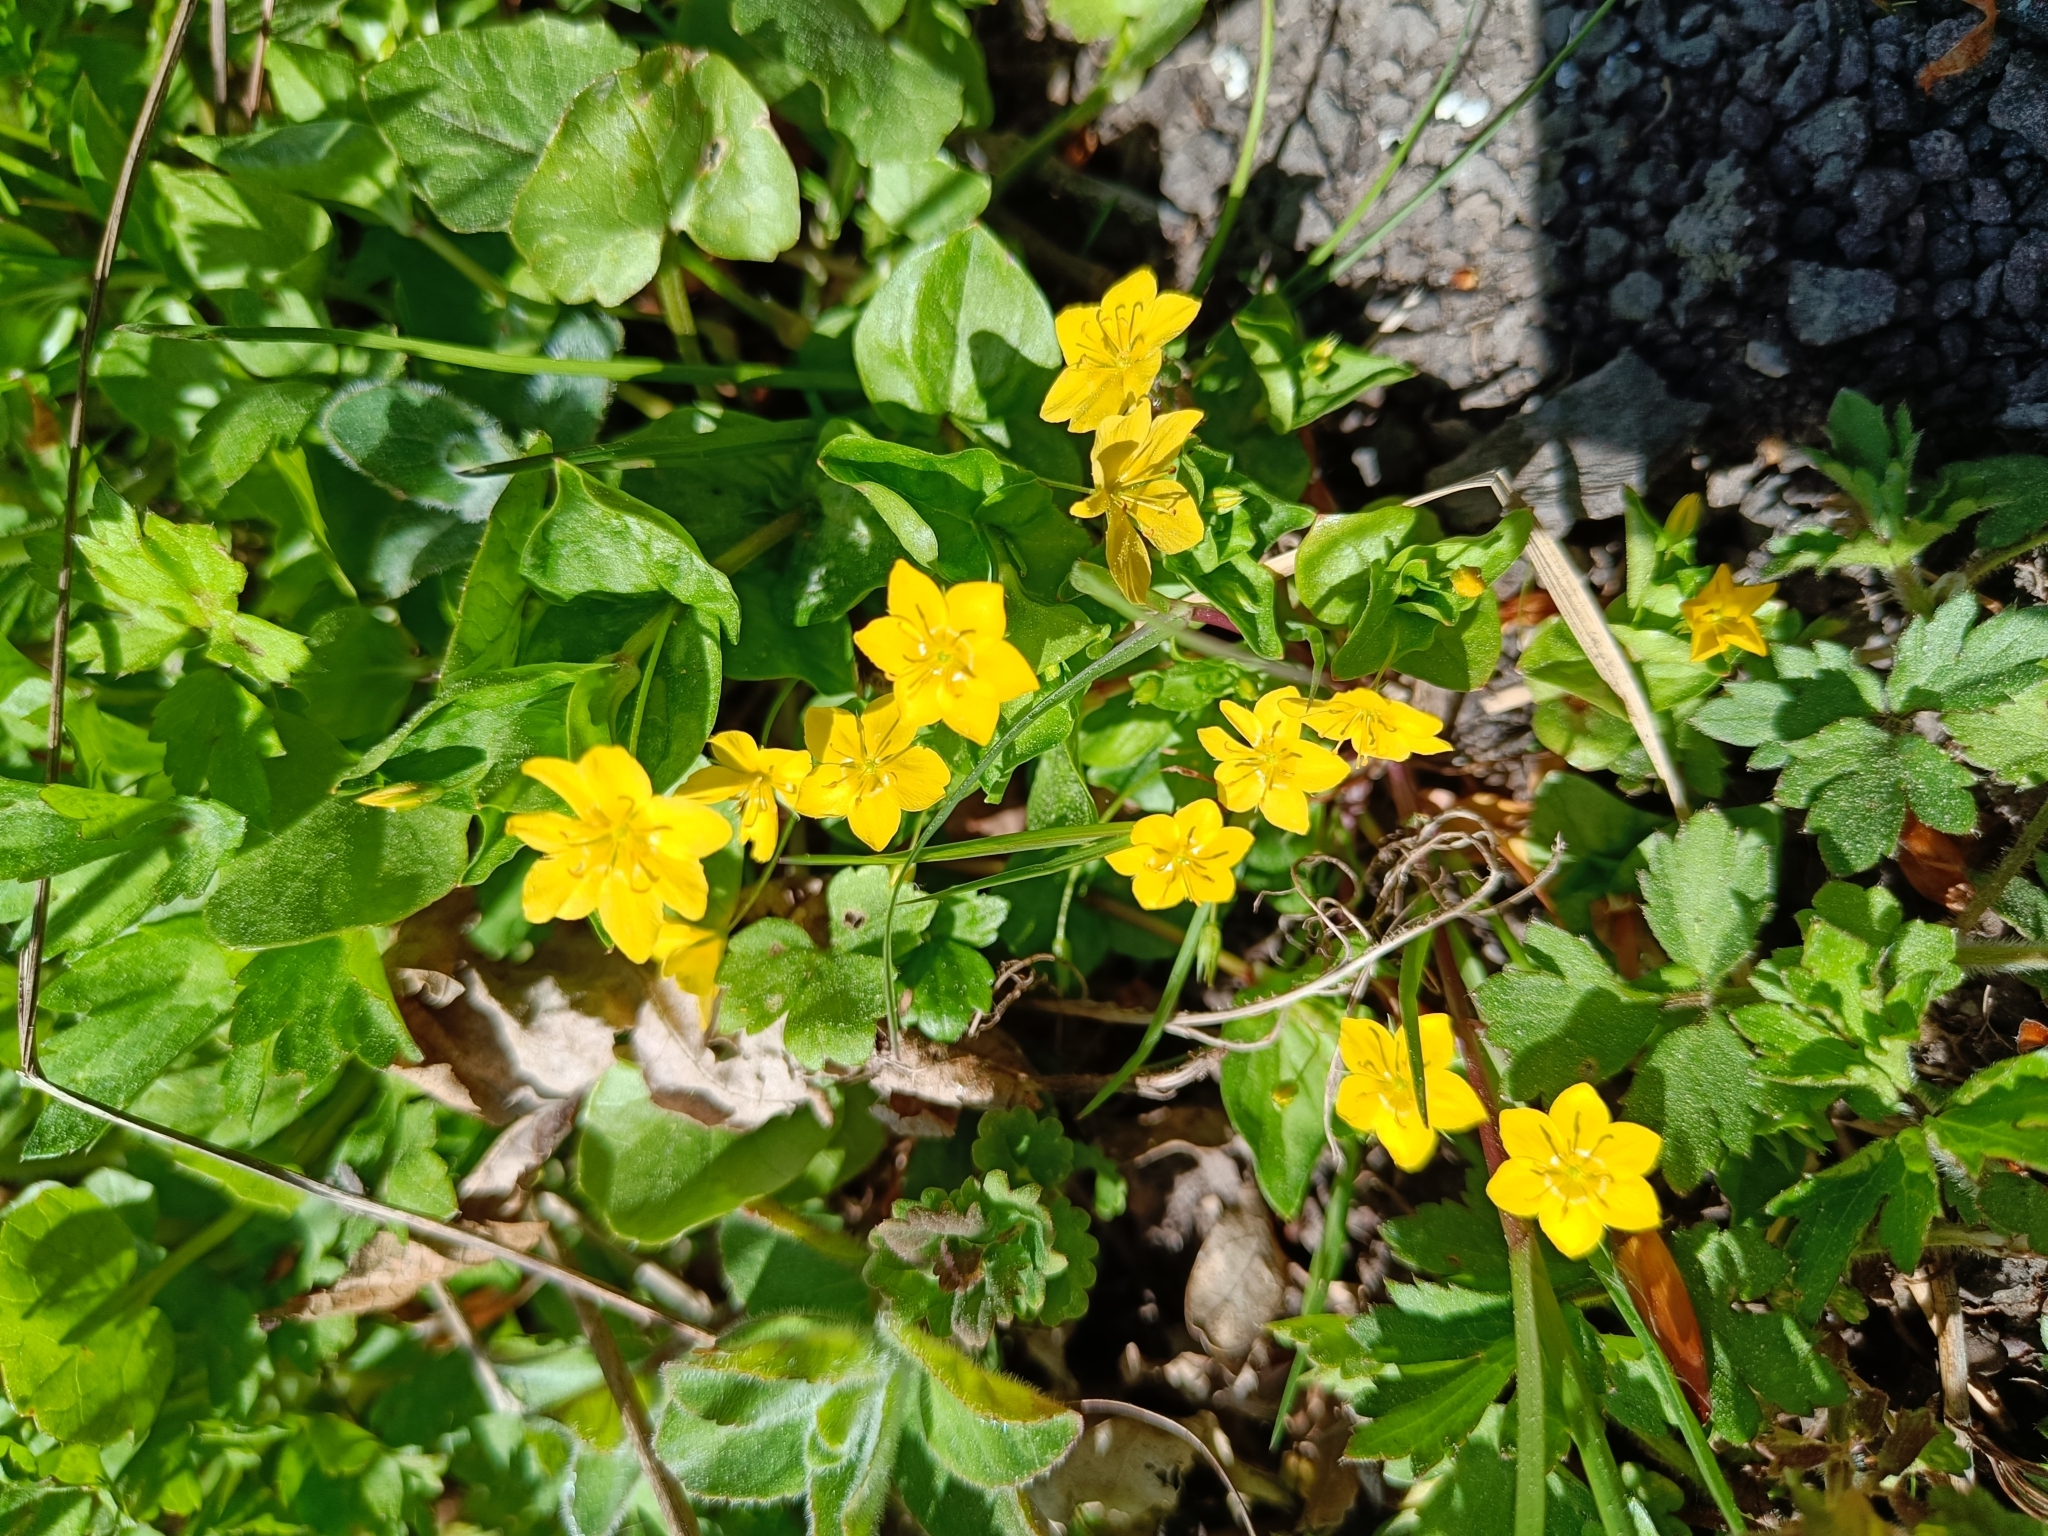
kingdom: Plantae
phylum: Tracheophyta
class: Magnoliopsida
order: Ericales
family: Primulaceae
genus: Lysimachia
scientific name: Lysimachia nemorum
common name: Yellow pimpernel
